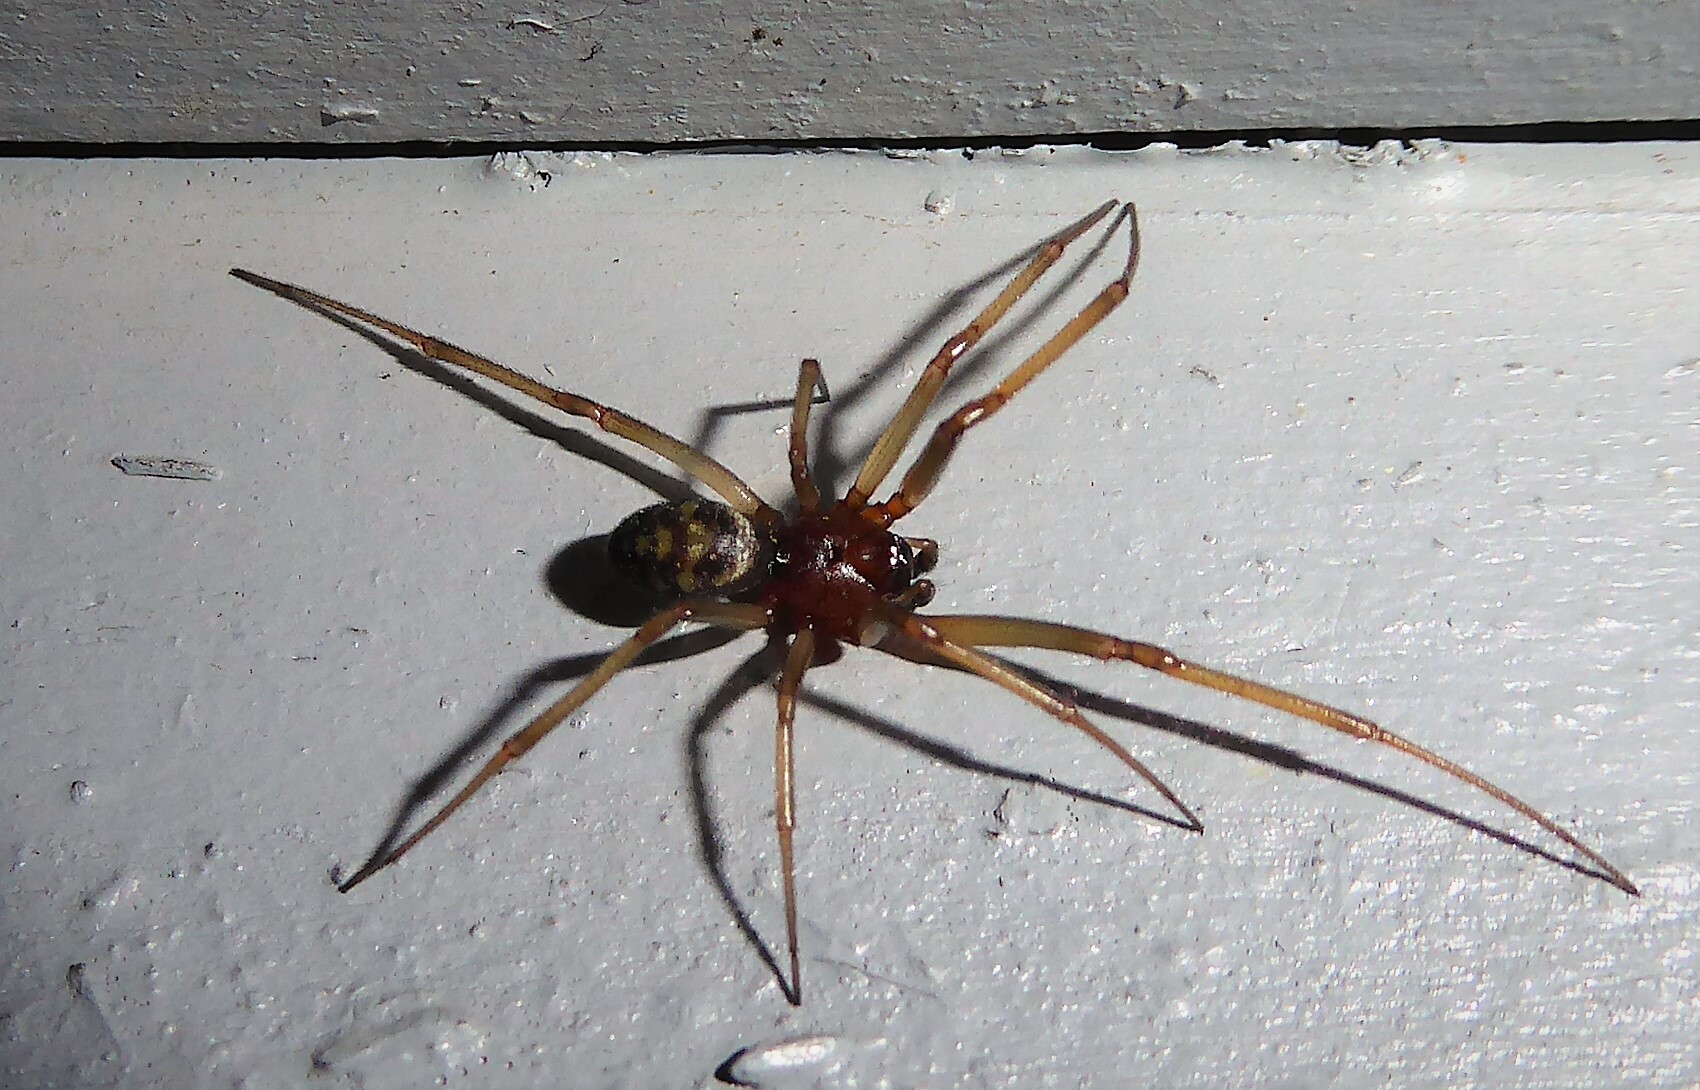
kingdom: Animalia
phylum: Arthropoda
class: Arachnida
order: Araneae
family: Theridiidae
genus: Steatoda
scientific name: Steatoda grossa
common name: False black widow
